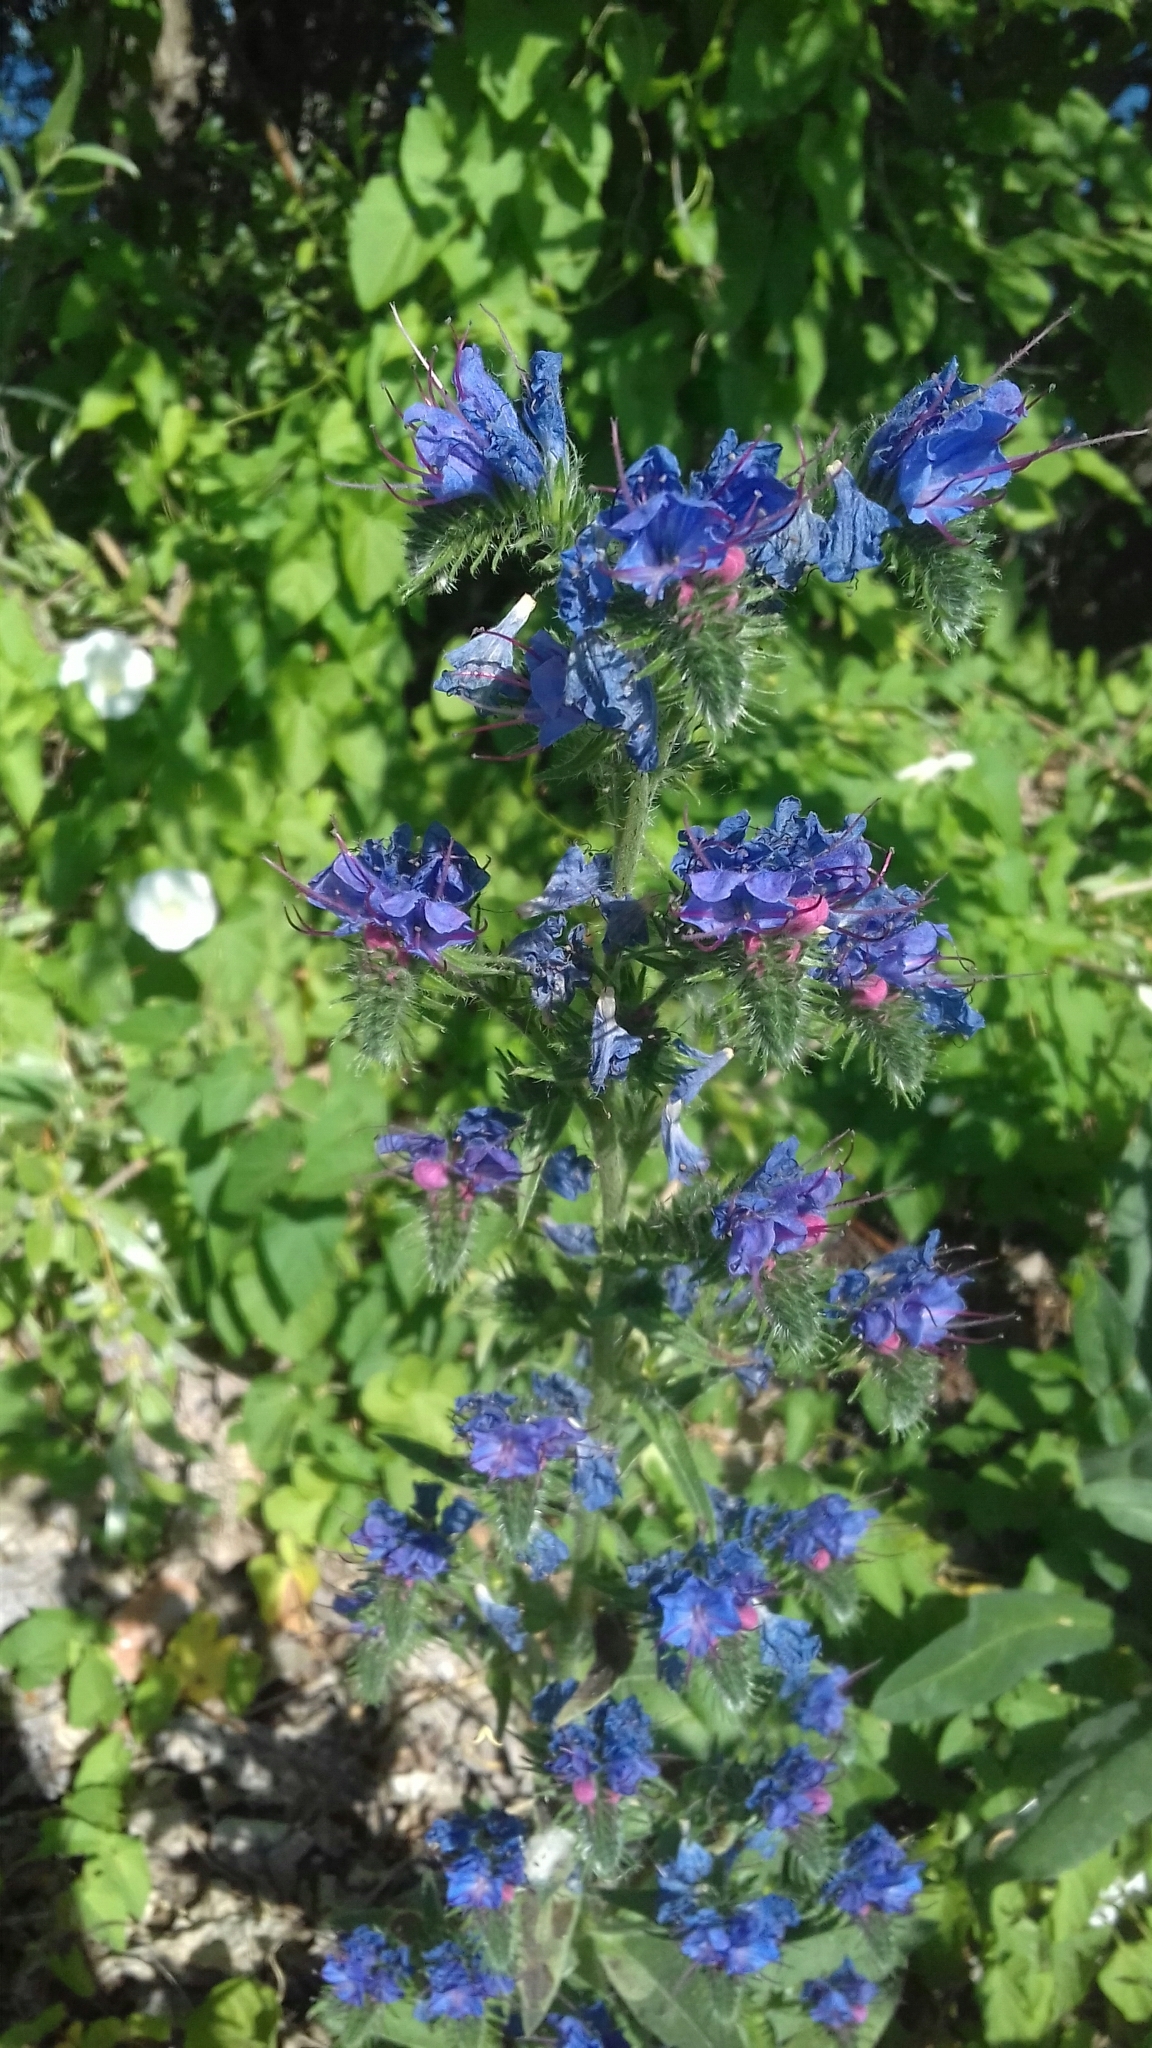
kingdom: Plantae
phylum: Tracheophyta
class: Magnoliopsida
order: Boraginales
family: Boraginaceae
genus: Echium
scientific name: Echium vulgare
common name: Common viper's bugloss
